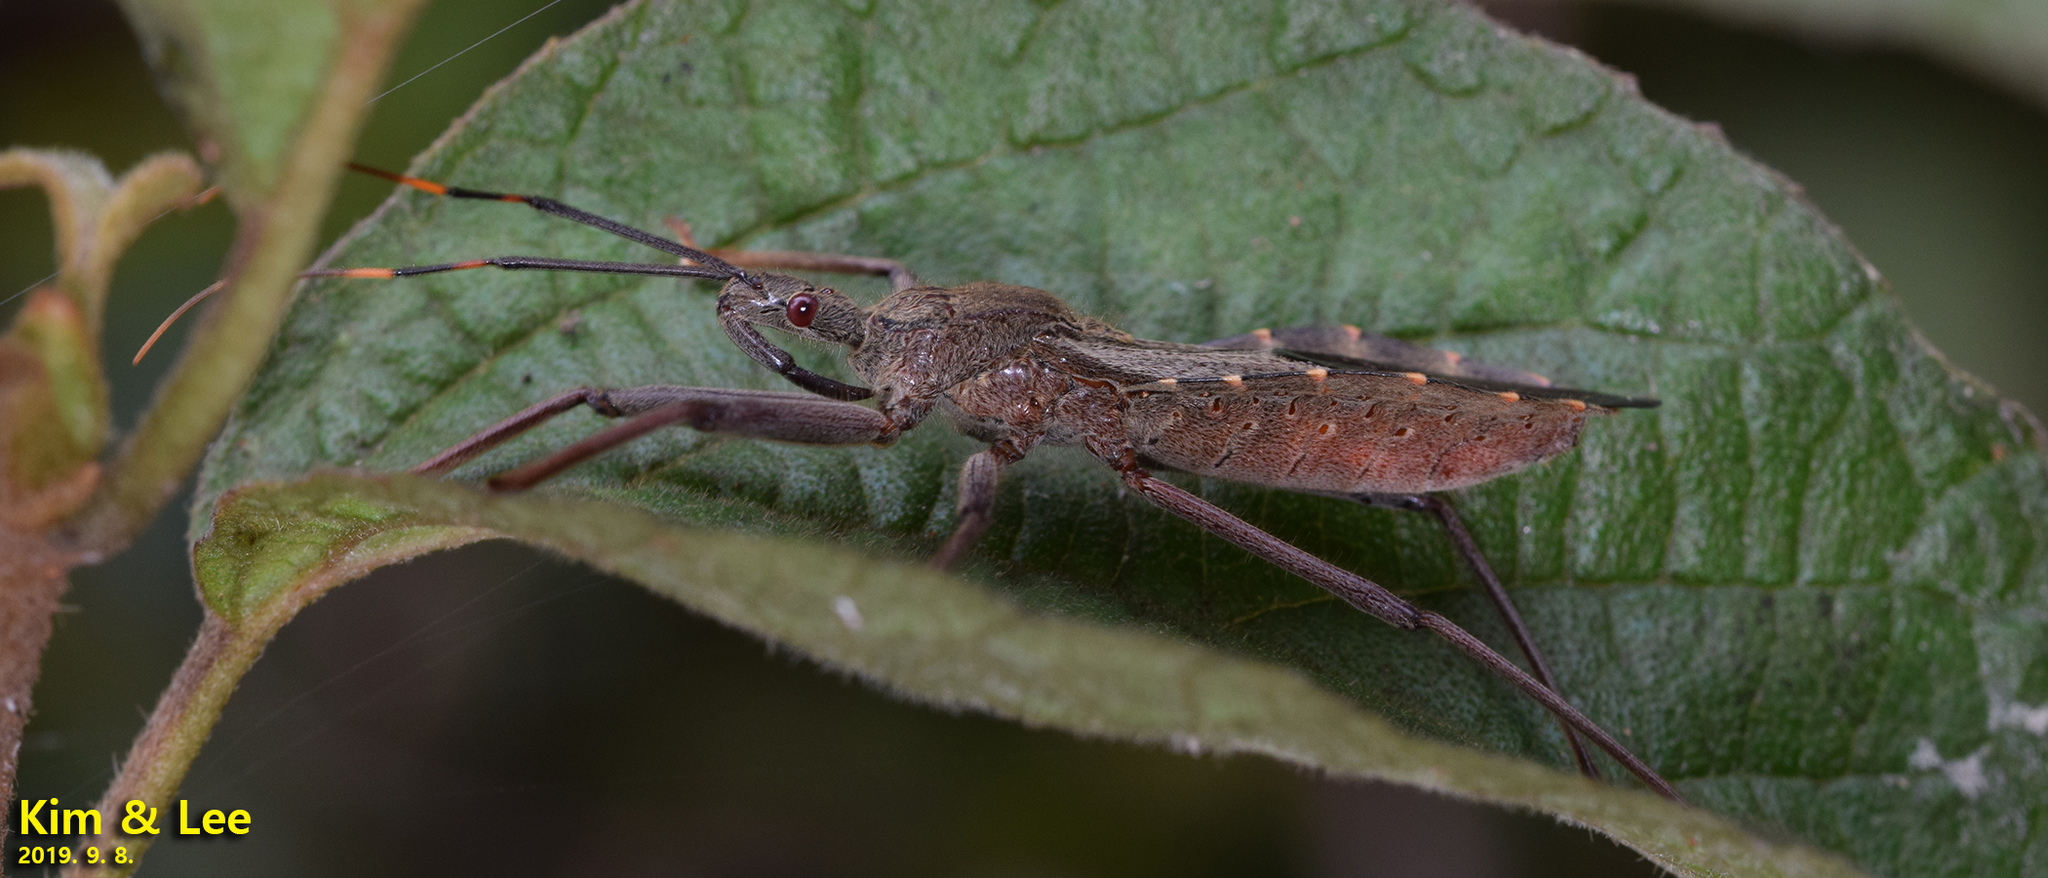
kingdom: Animalia
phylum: Arthropoda
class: Insecta
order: Hemiptera
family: Reduviidae
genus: Isyndus
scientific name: Isyndus obscurus
